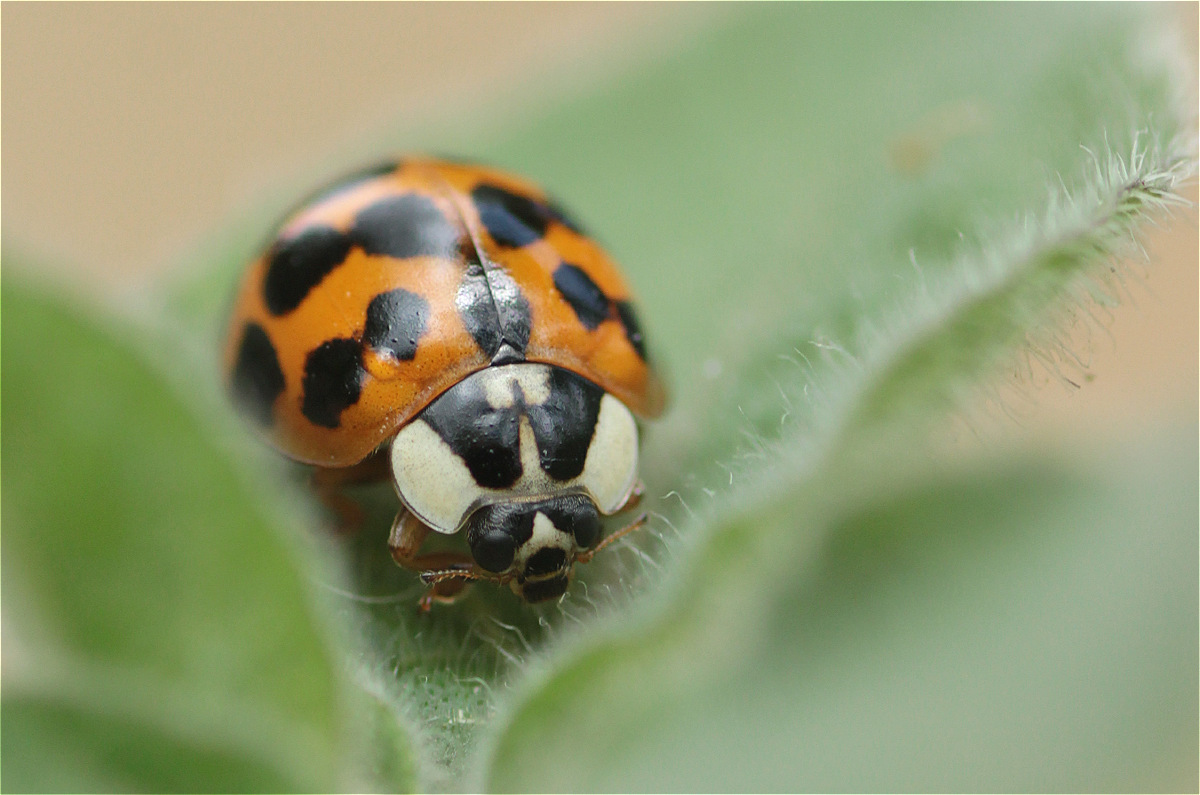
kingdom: Animalia
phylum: Arthropoda
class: Insecta
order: Coleoptera
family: Coccinellidae
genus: Harmonia
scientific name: Harmonia axyridis
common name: Harlequin ladybird
